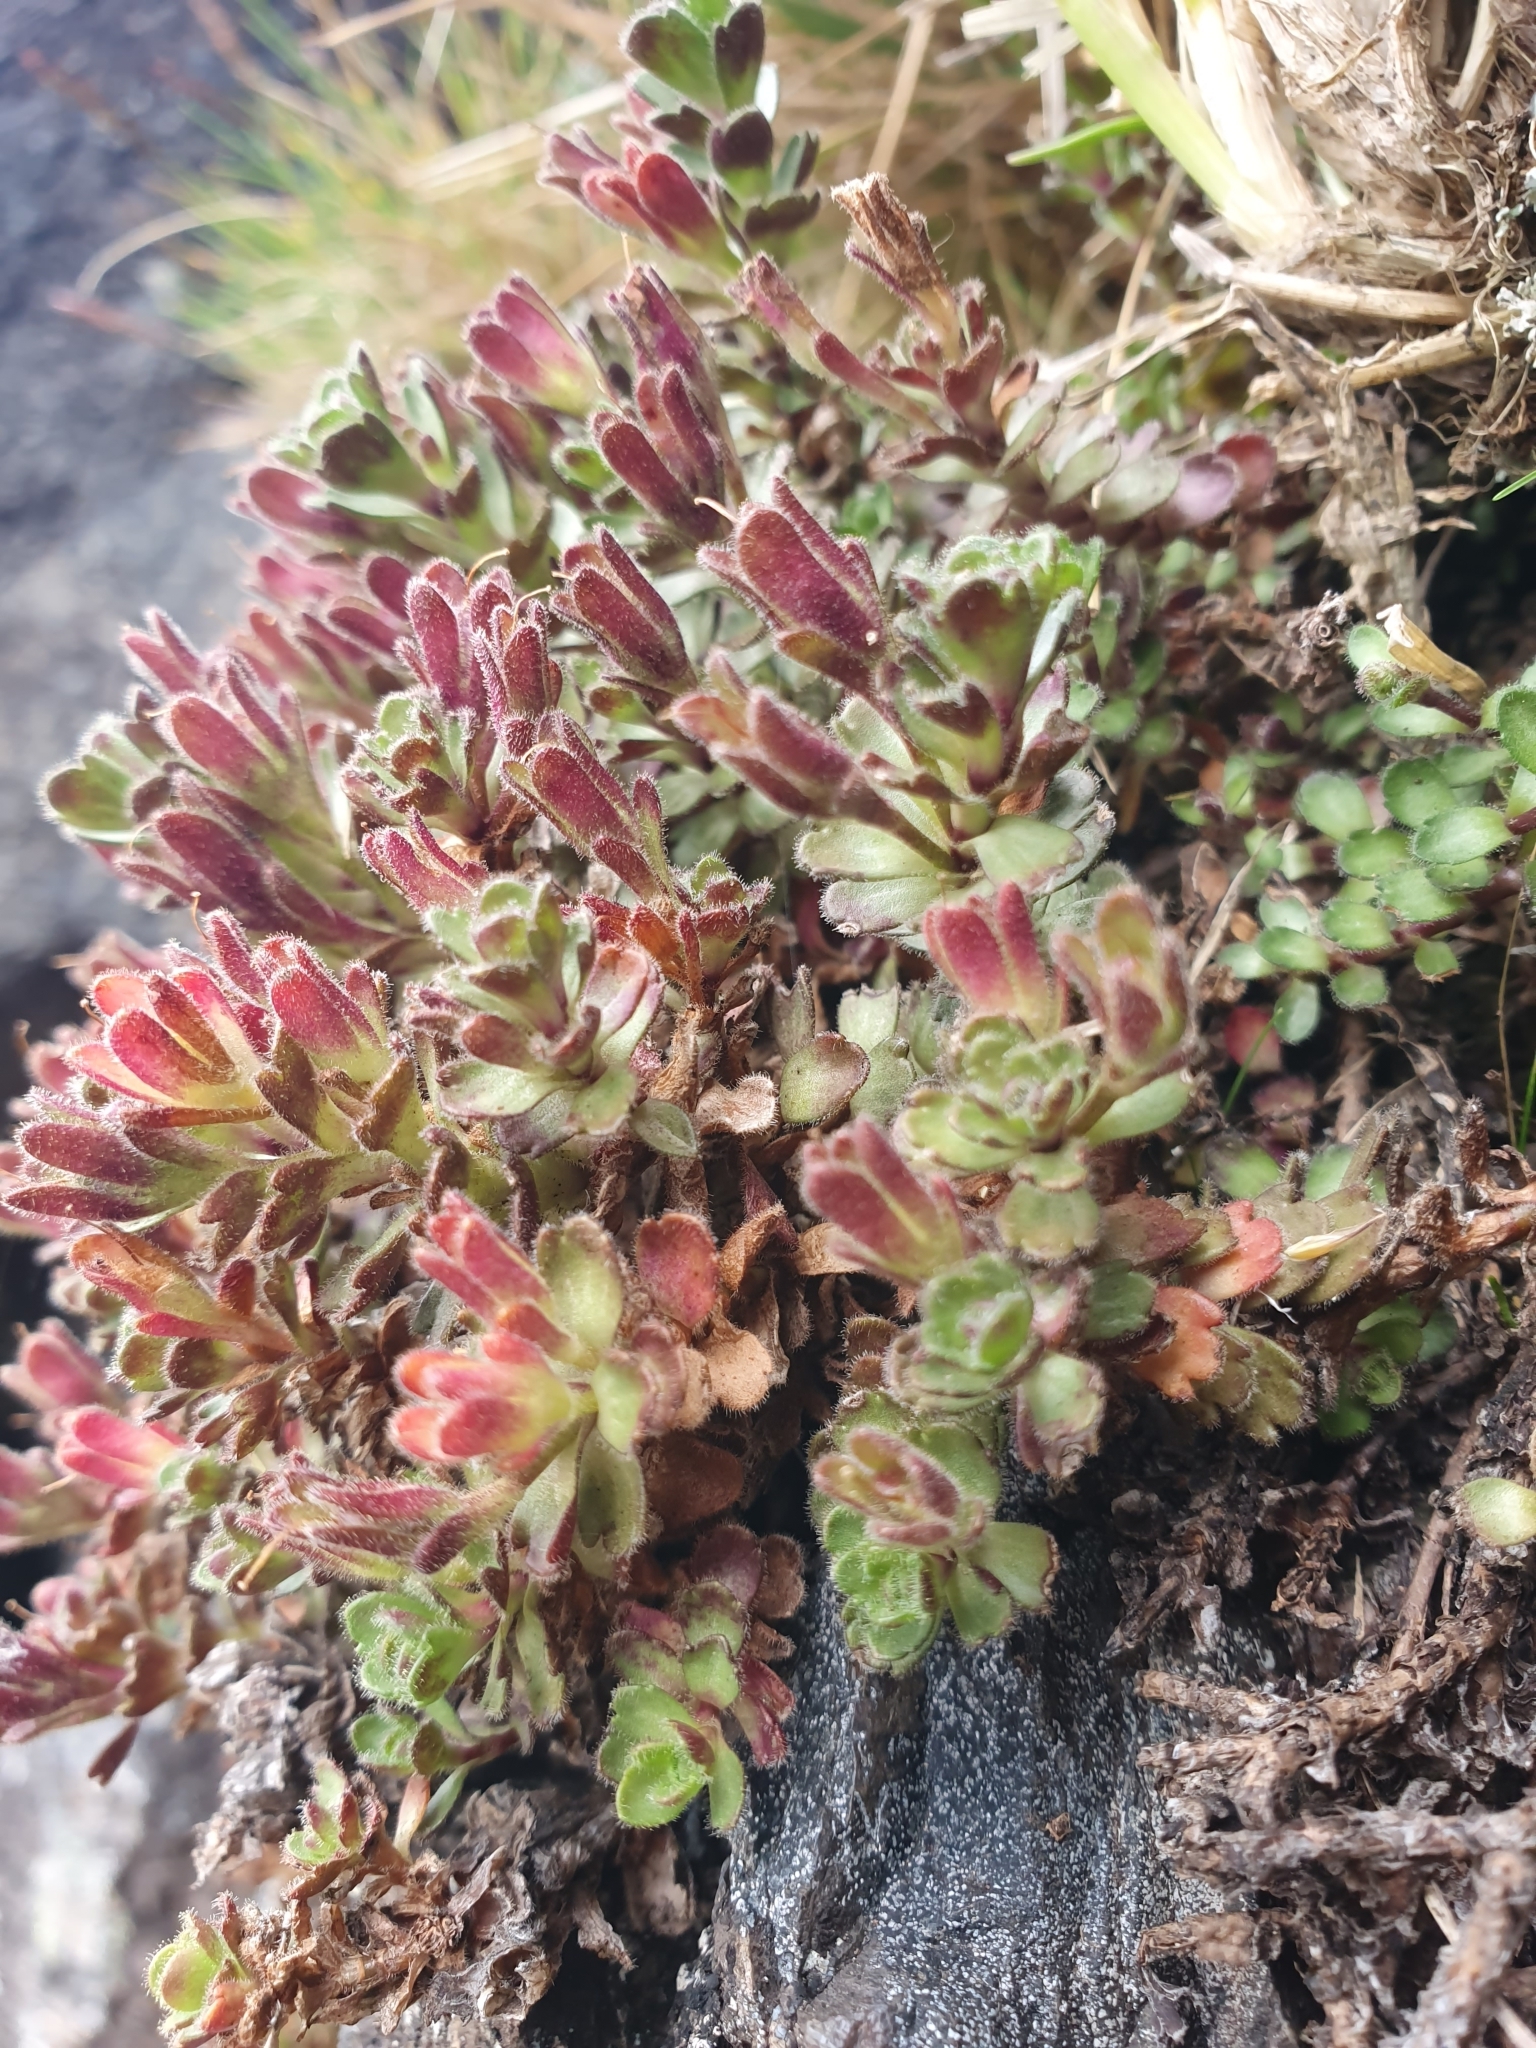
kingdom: Plantae
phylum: Tracheophyta
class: Magnoliopsida
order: Lamiales
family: Plantaginaceae
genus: Veronica
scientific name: Veronica spectabilis
